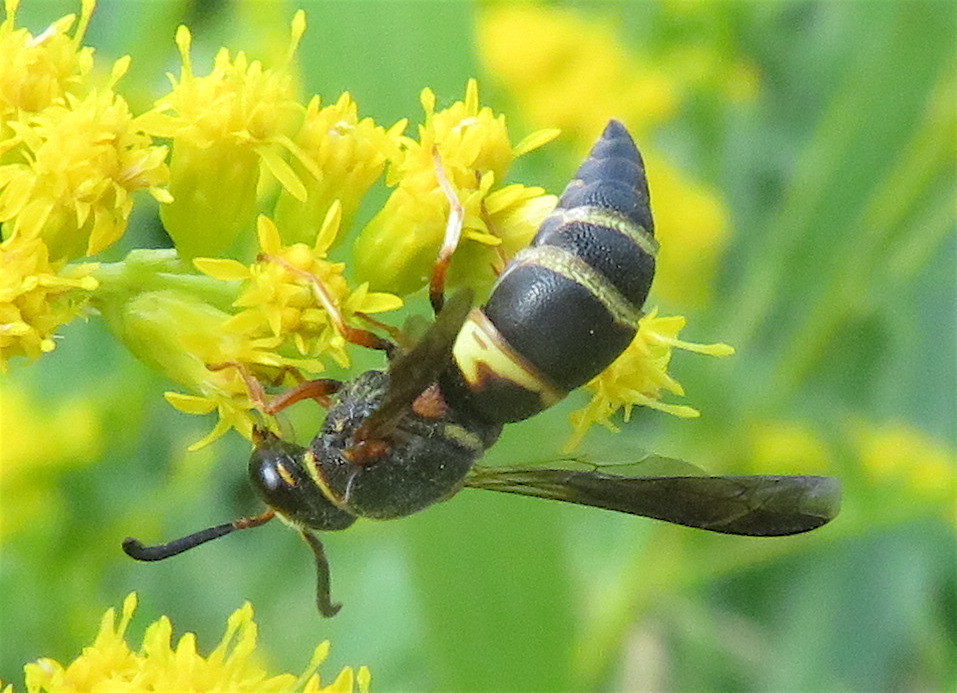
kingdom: Animalia
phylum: Arthropoda
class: Insecta
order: Hymenoptera
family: Eumenidae
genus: Euodynerus
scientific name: Euodynerus hidalgo
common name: Wasp
